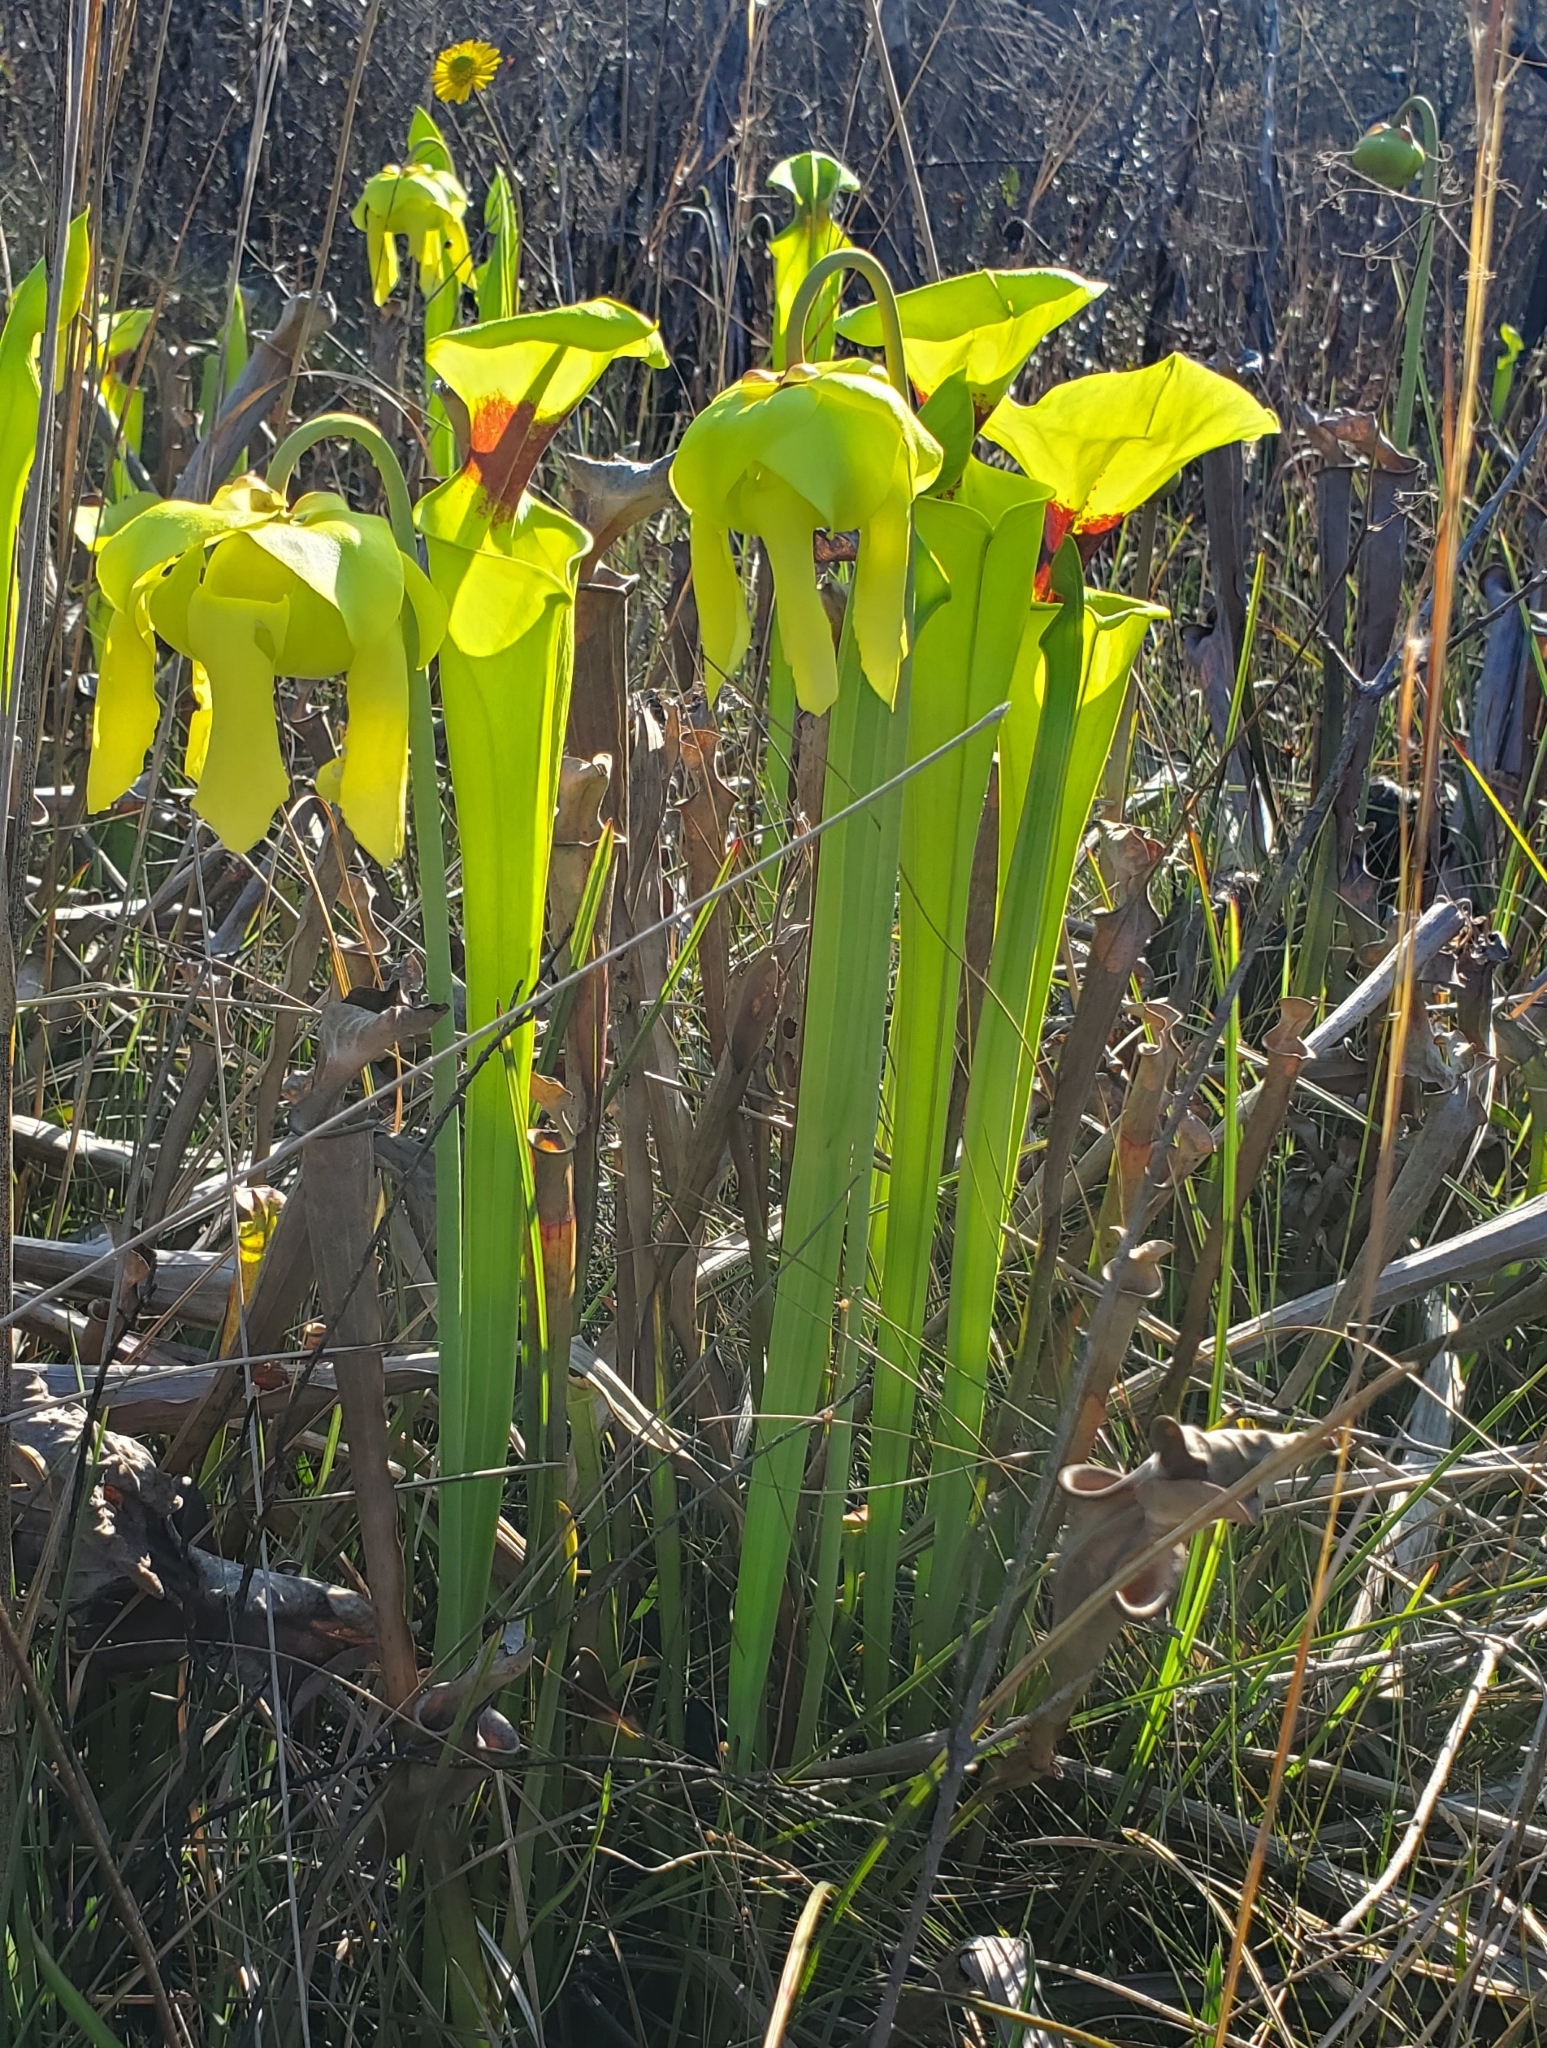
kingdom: Plantae
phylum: Tracheophyta
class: Magnoliopsida
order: Ericales
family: Sarraceniaceae
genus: Sarracenia
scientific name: Sarracenia flava
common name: Trumpets
